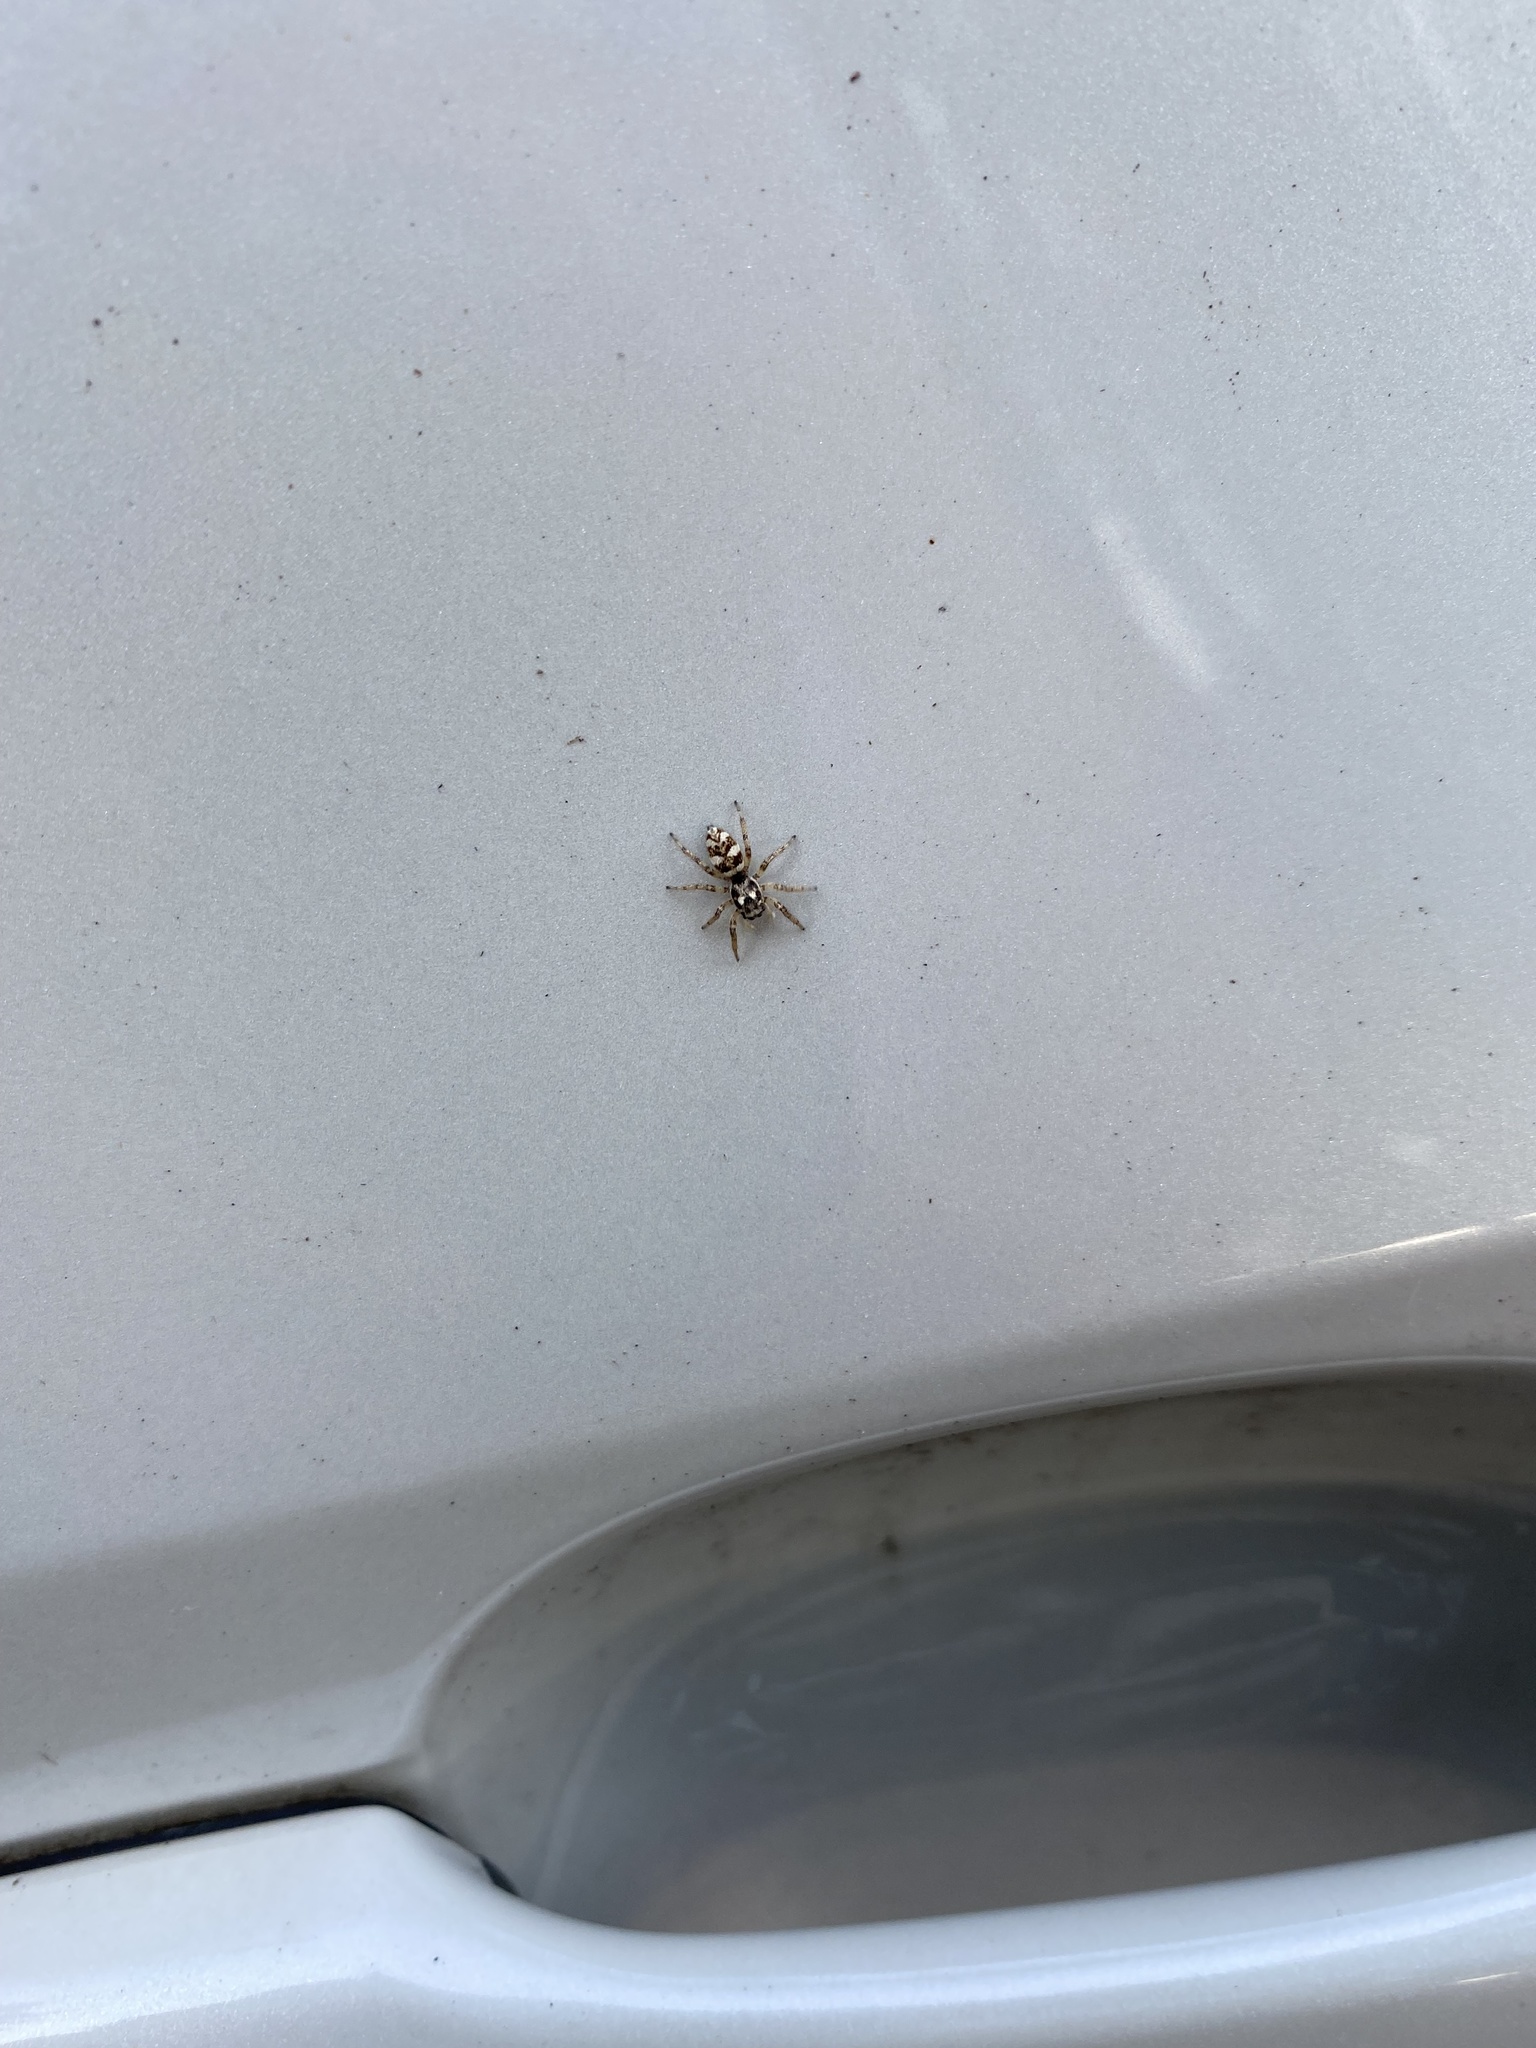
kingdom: Animalia
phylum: Arthropoda
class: Arachnida
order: Araneae
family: Salticidae
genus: Salticus
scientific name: Salticus scenicus
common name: Zebra jumper
